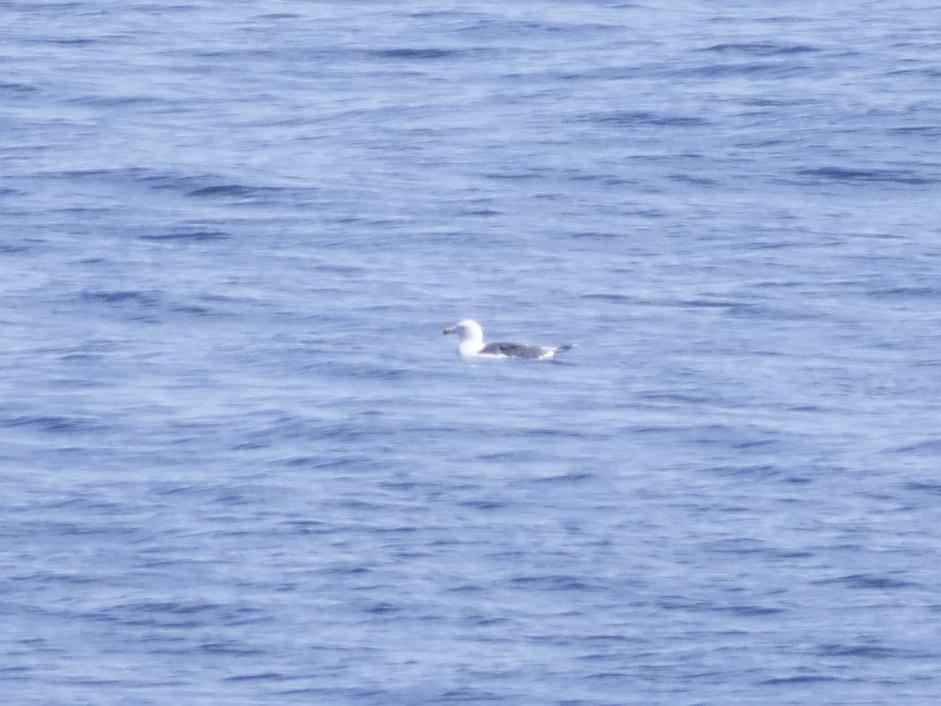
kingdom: Animalia
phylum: Chordata
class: Aves
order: Charadriiformes
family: Laridae
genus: Larus
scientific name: Larus marinus
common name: Great black-backed gull
